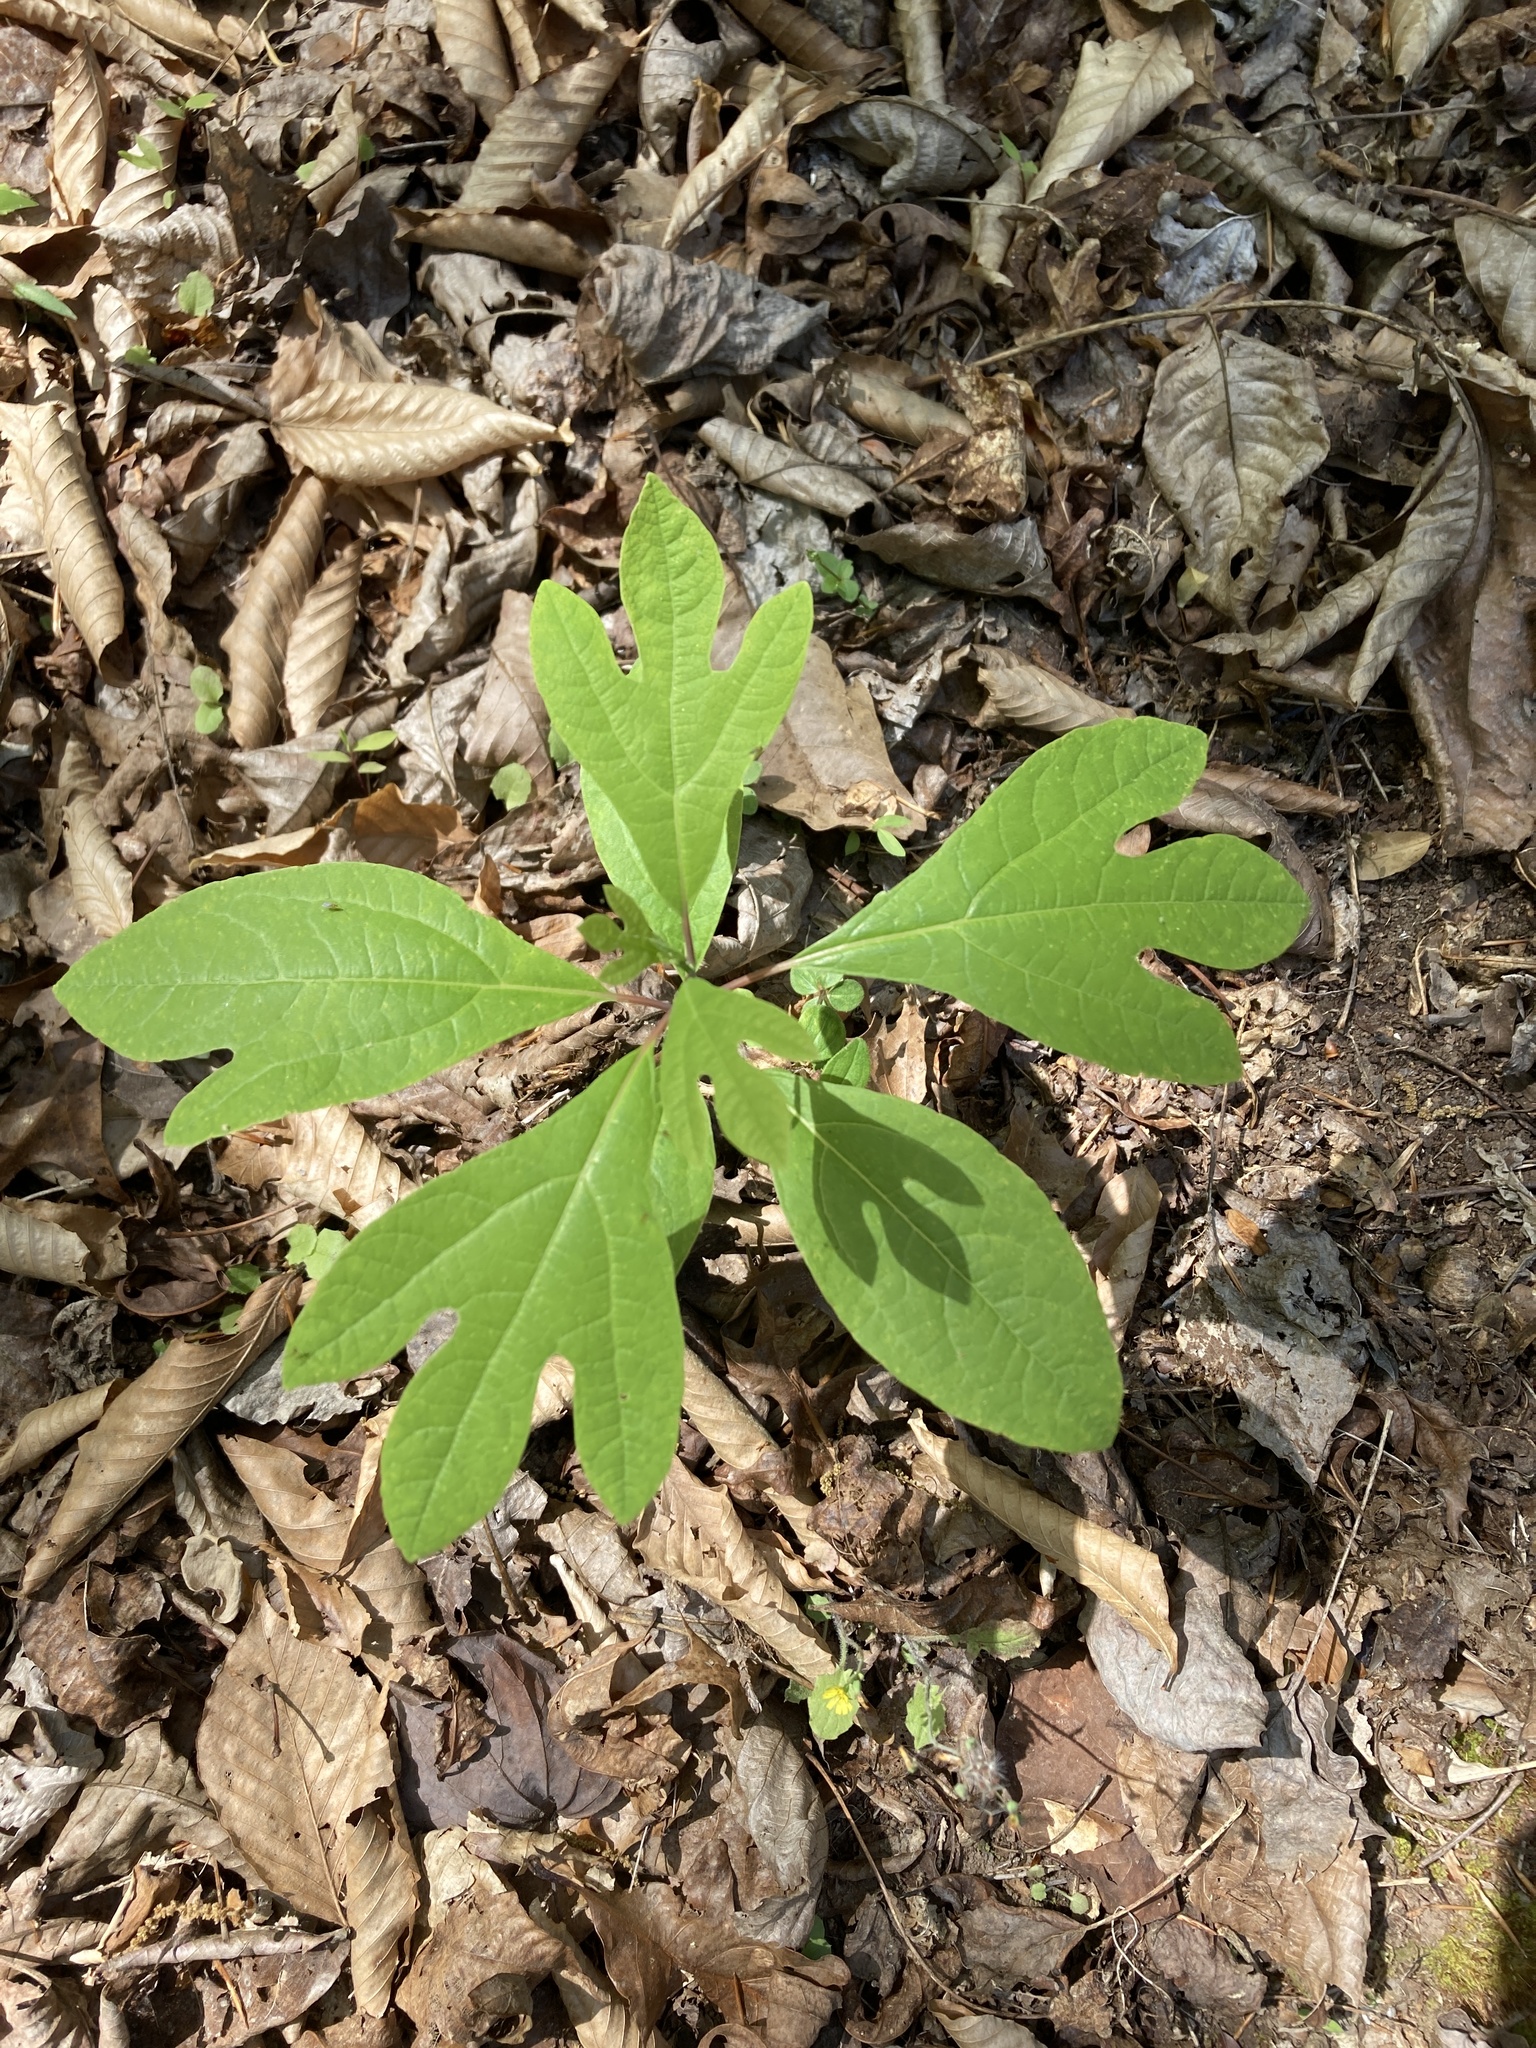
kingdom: Plantae
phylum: Tracheophyta
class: Magnoliopsida
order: Laurales
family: Lauraceae
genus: Sassafras
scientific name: Sassafras albidum
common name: Sassafras
